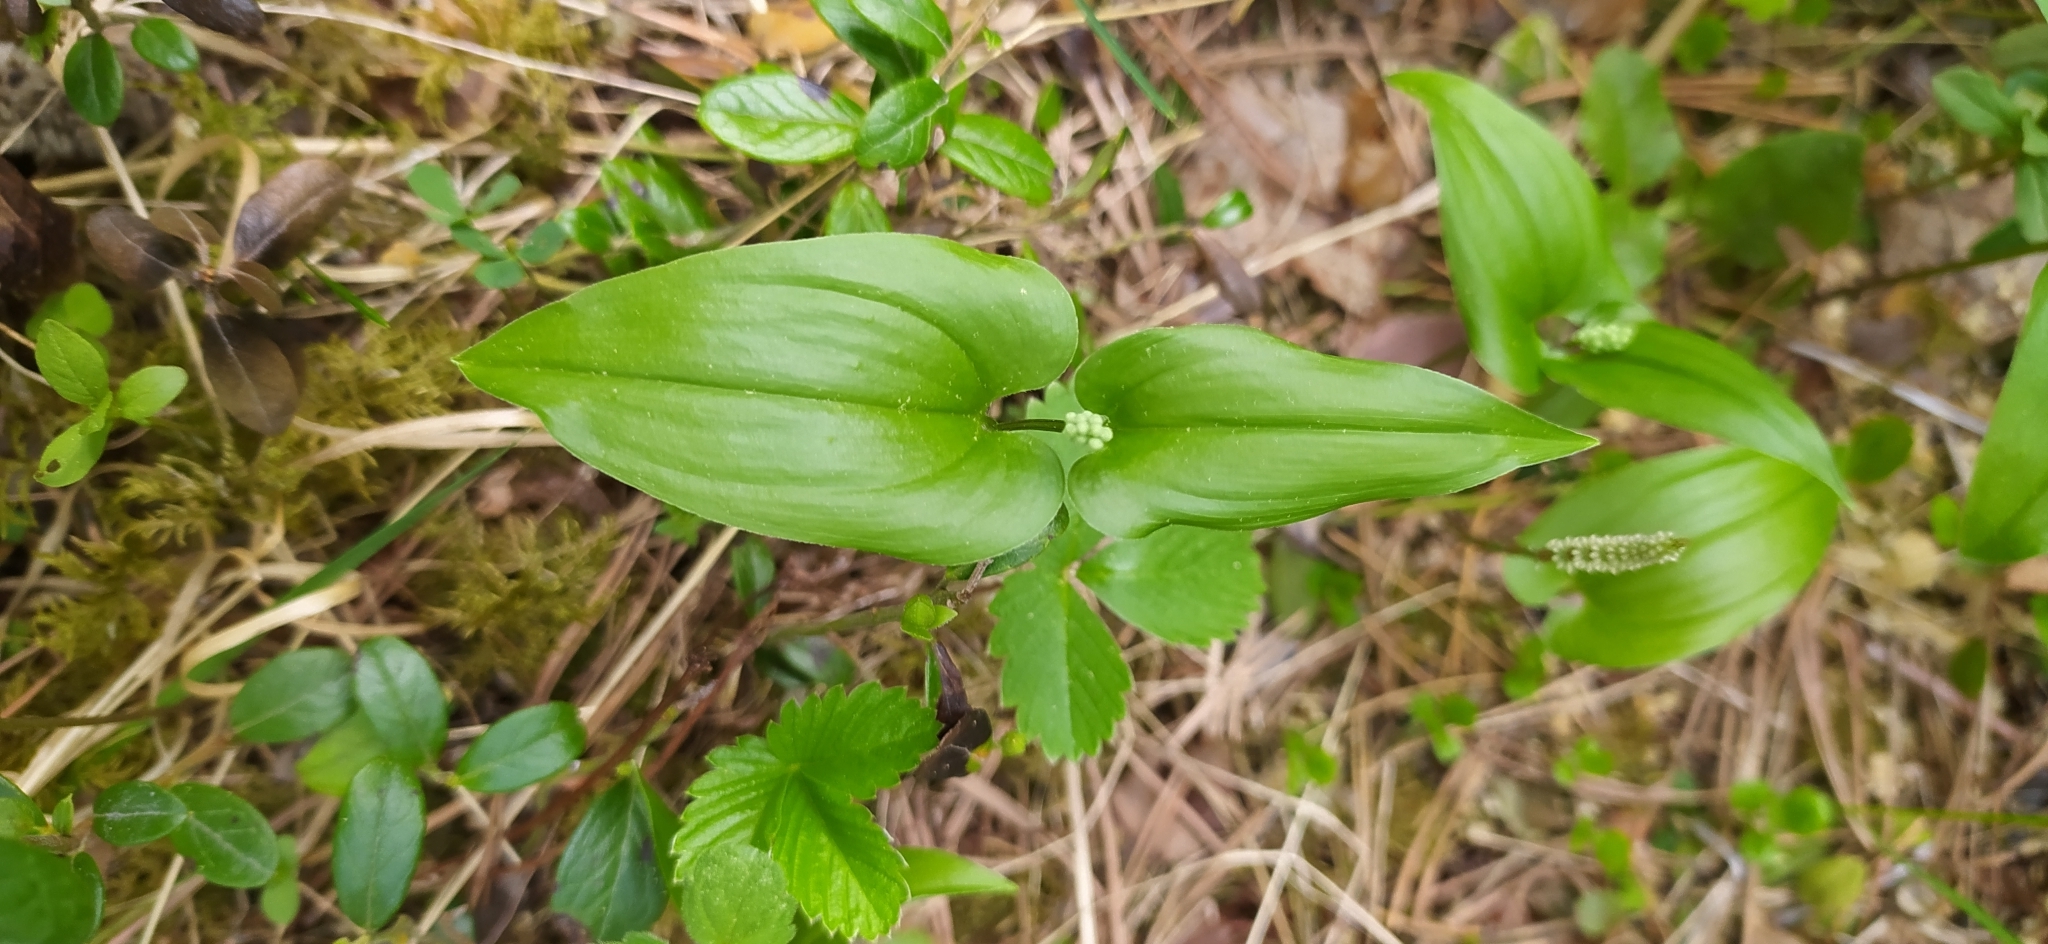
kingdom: Plantae
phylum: Tracheophyta
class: Liliopsida
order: Asparagales
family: Asparagaceae
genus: Maianthemum
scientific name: Maianthemum bifolium
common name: May lily
